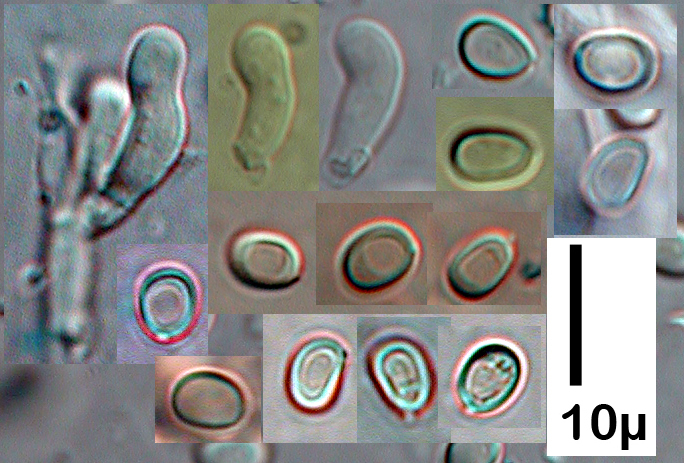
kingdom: Fungi
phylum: Basidiomycota
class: Agaricomycetes
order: Hymenochaetales
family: Hymenochaetaceae
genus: Tubulicrinis
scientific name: Tubulicrinis thermometrus
